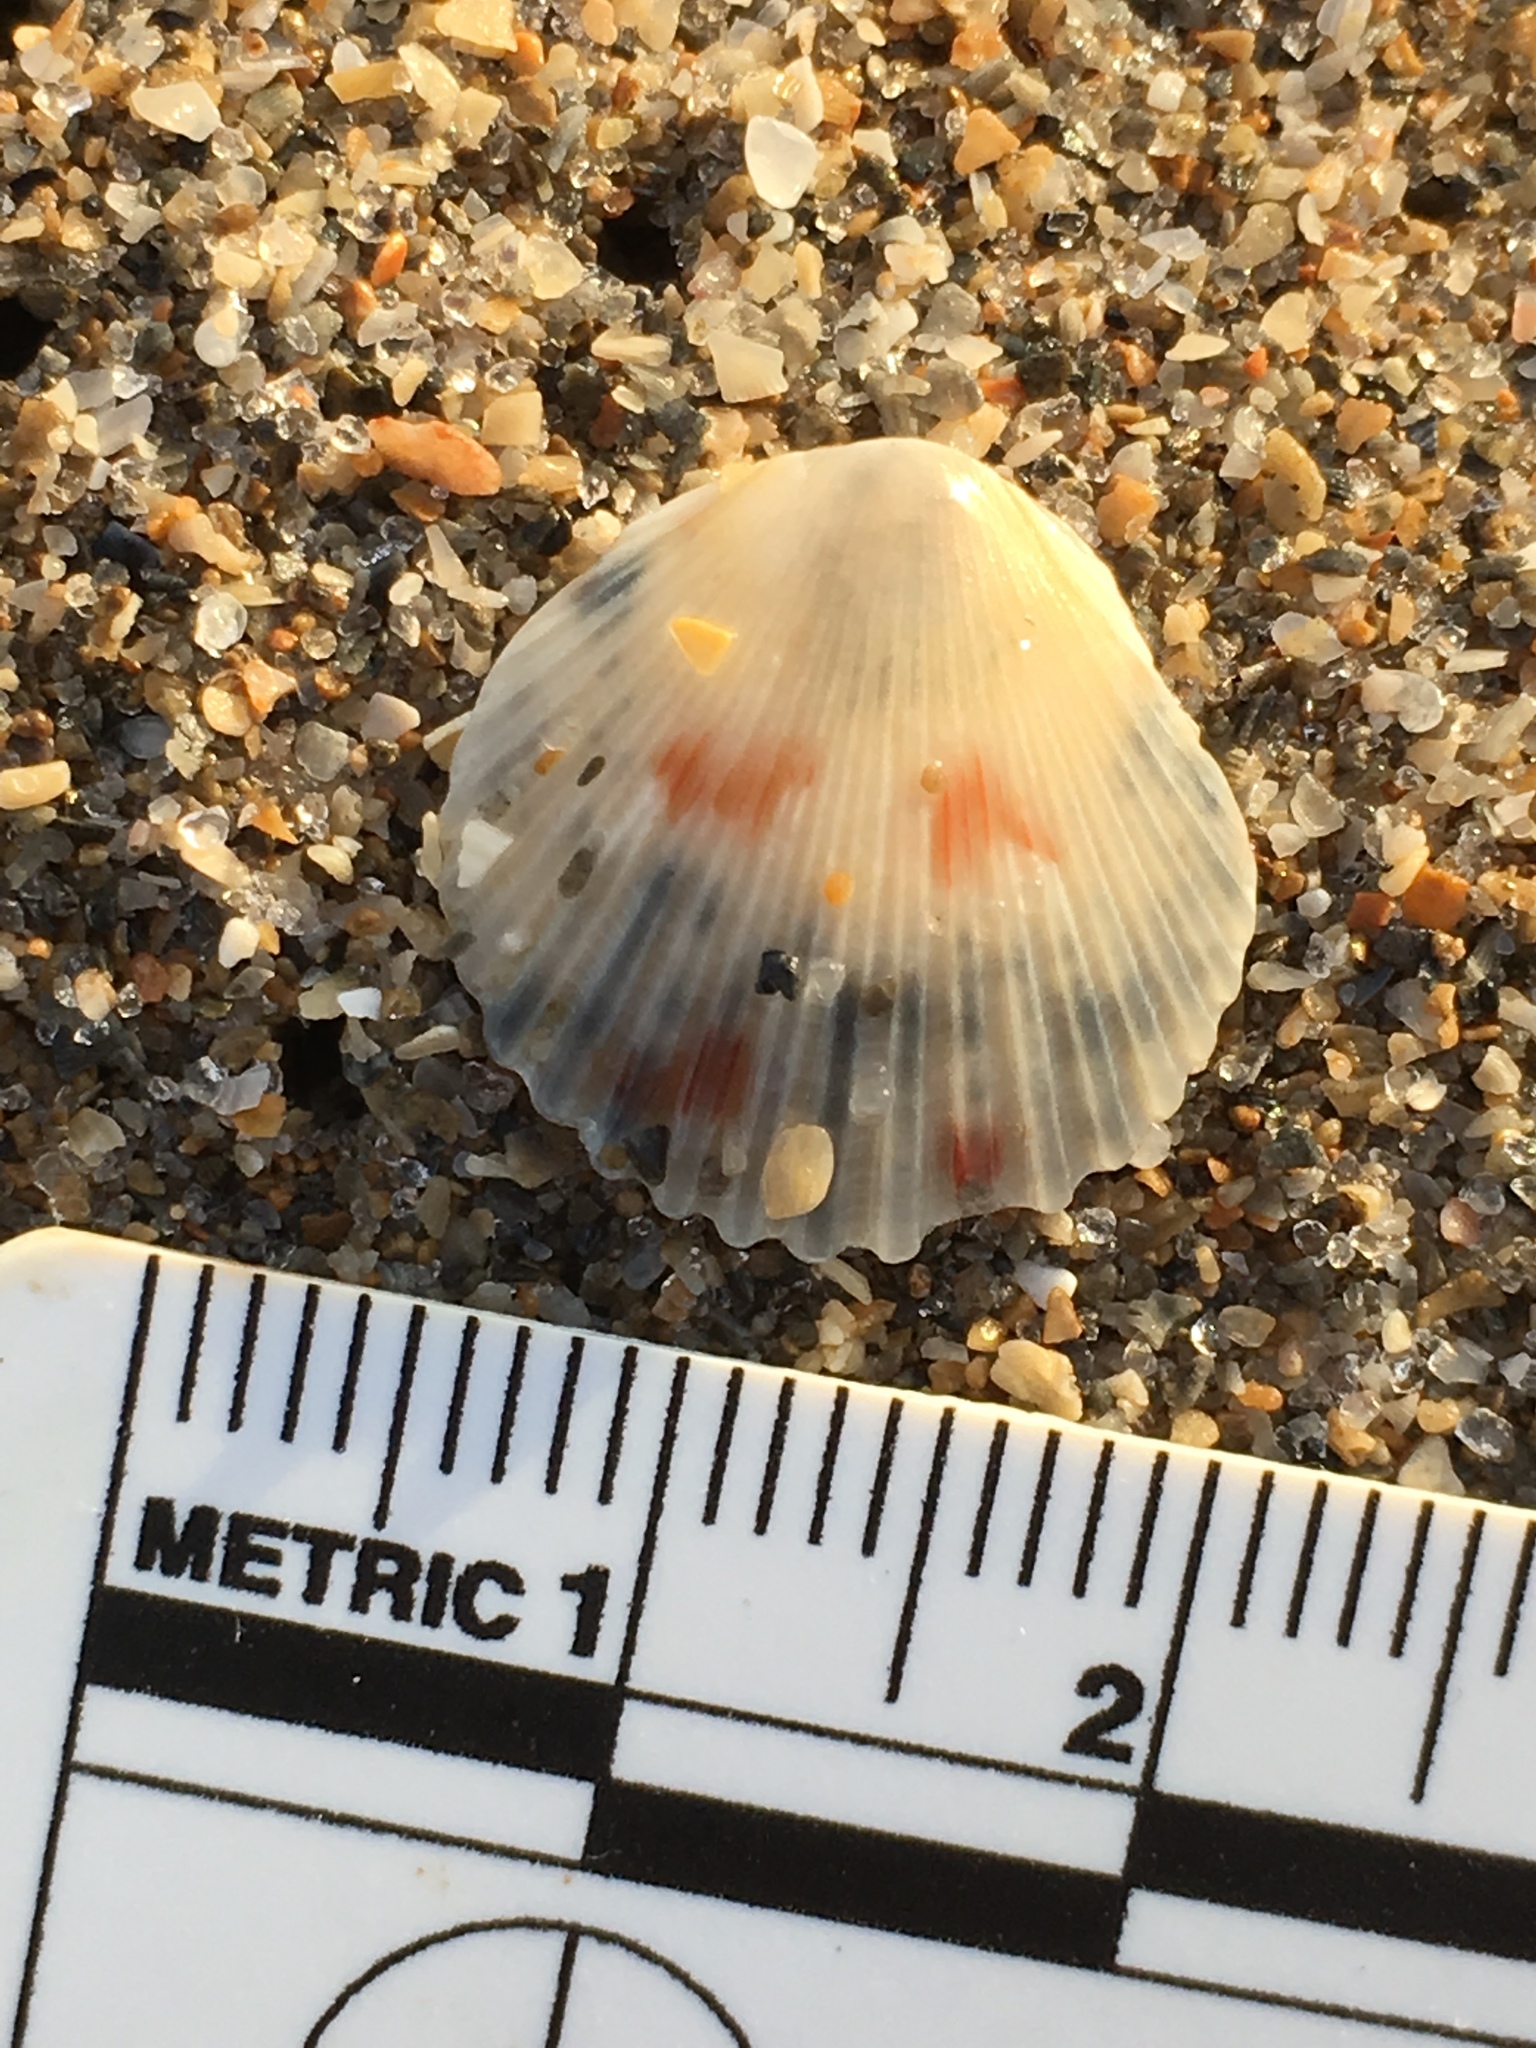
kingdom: Animalia
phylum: Mollusca
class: Bivalvia
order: Pectinida
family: Pectinidae
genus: Argopecten
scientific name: Argopecten gibbus
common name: Atlantic calico scallop
